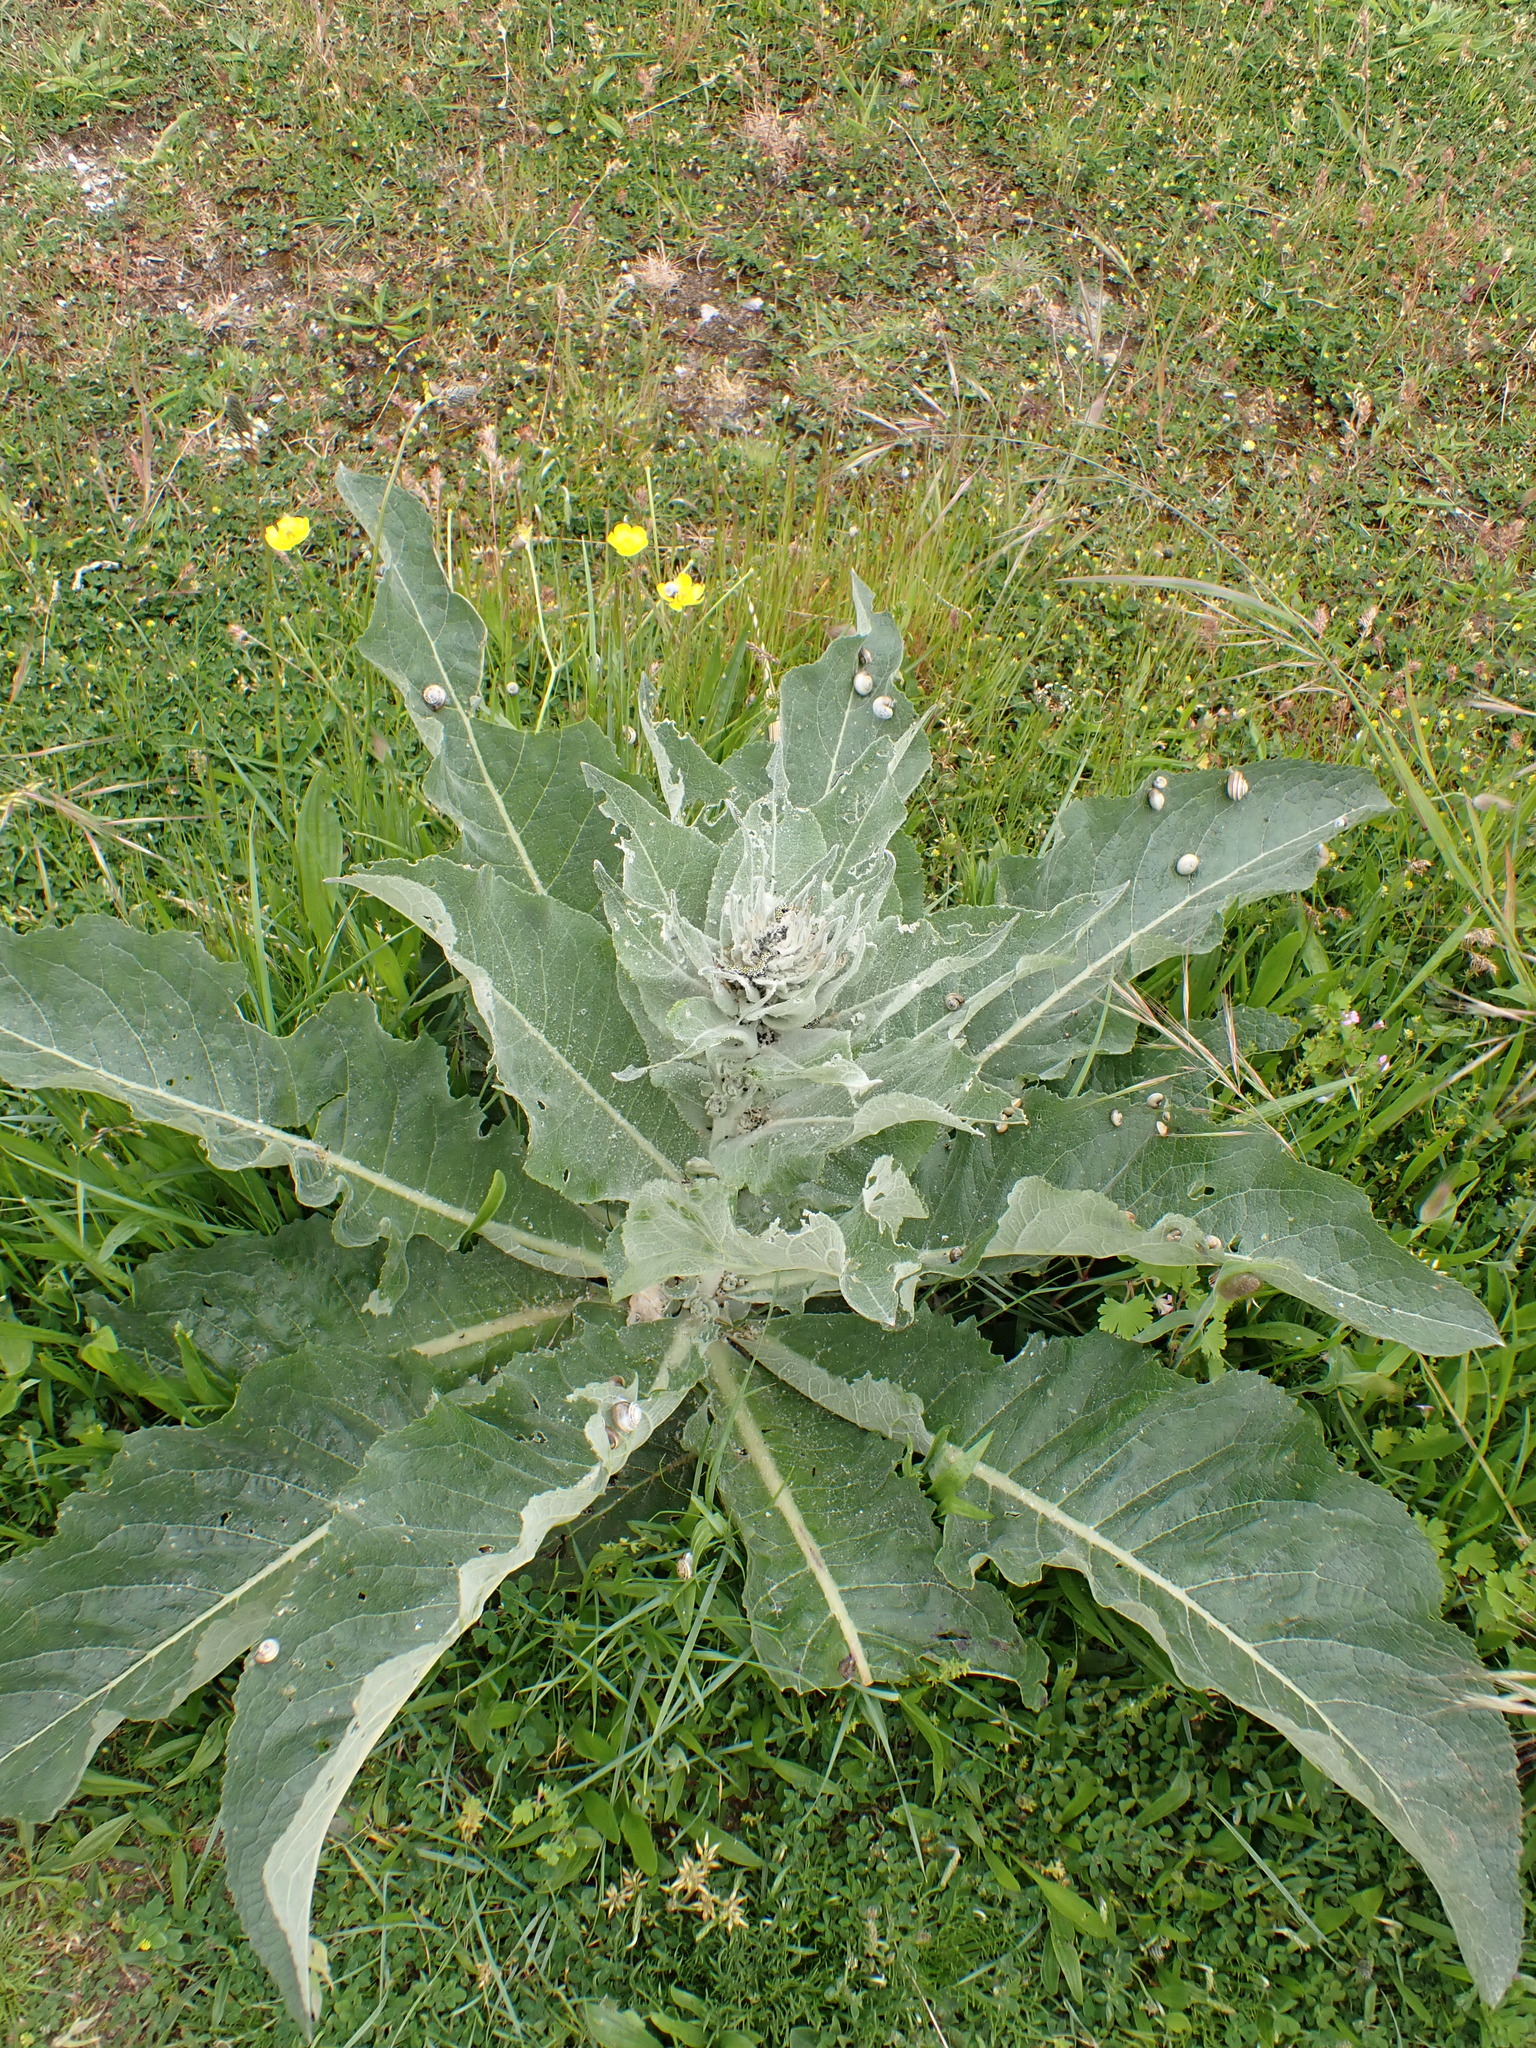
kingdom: Plantae
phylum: Tracheophyta
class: Magnoliopsida
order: Lamiales
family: Scrophulariaceae
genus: Verbascum
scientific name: Verbascum pulverulentum
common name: Broad-leaf mullein
